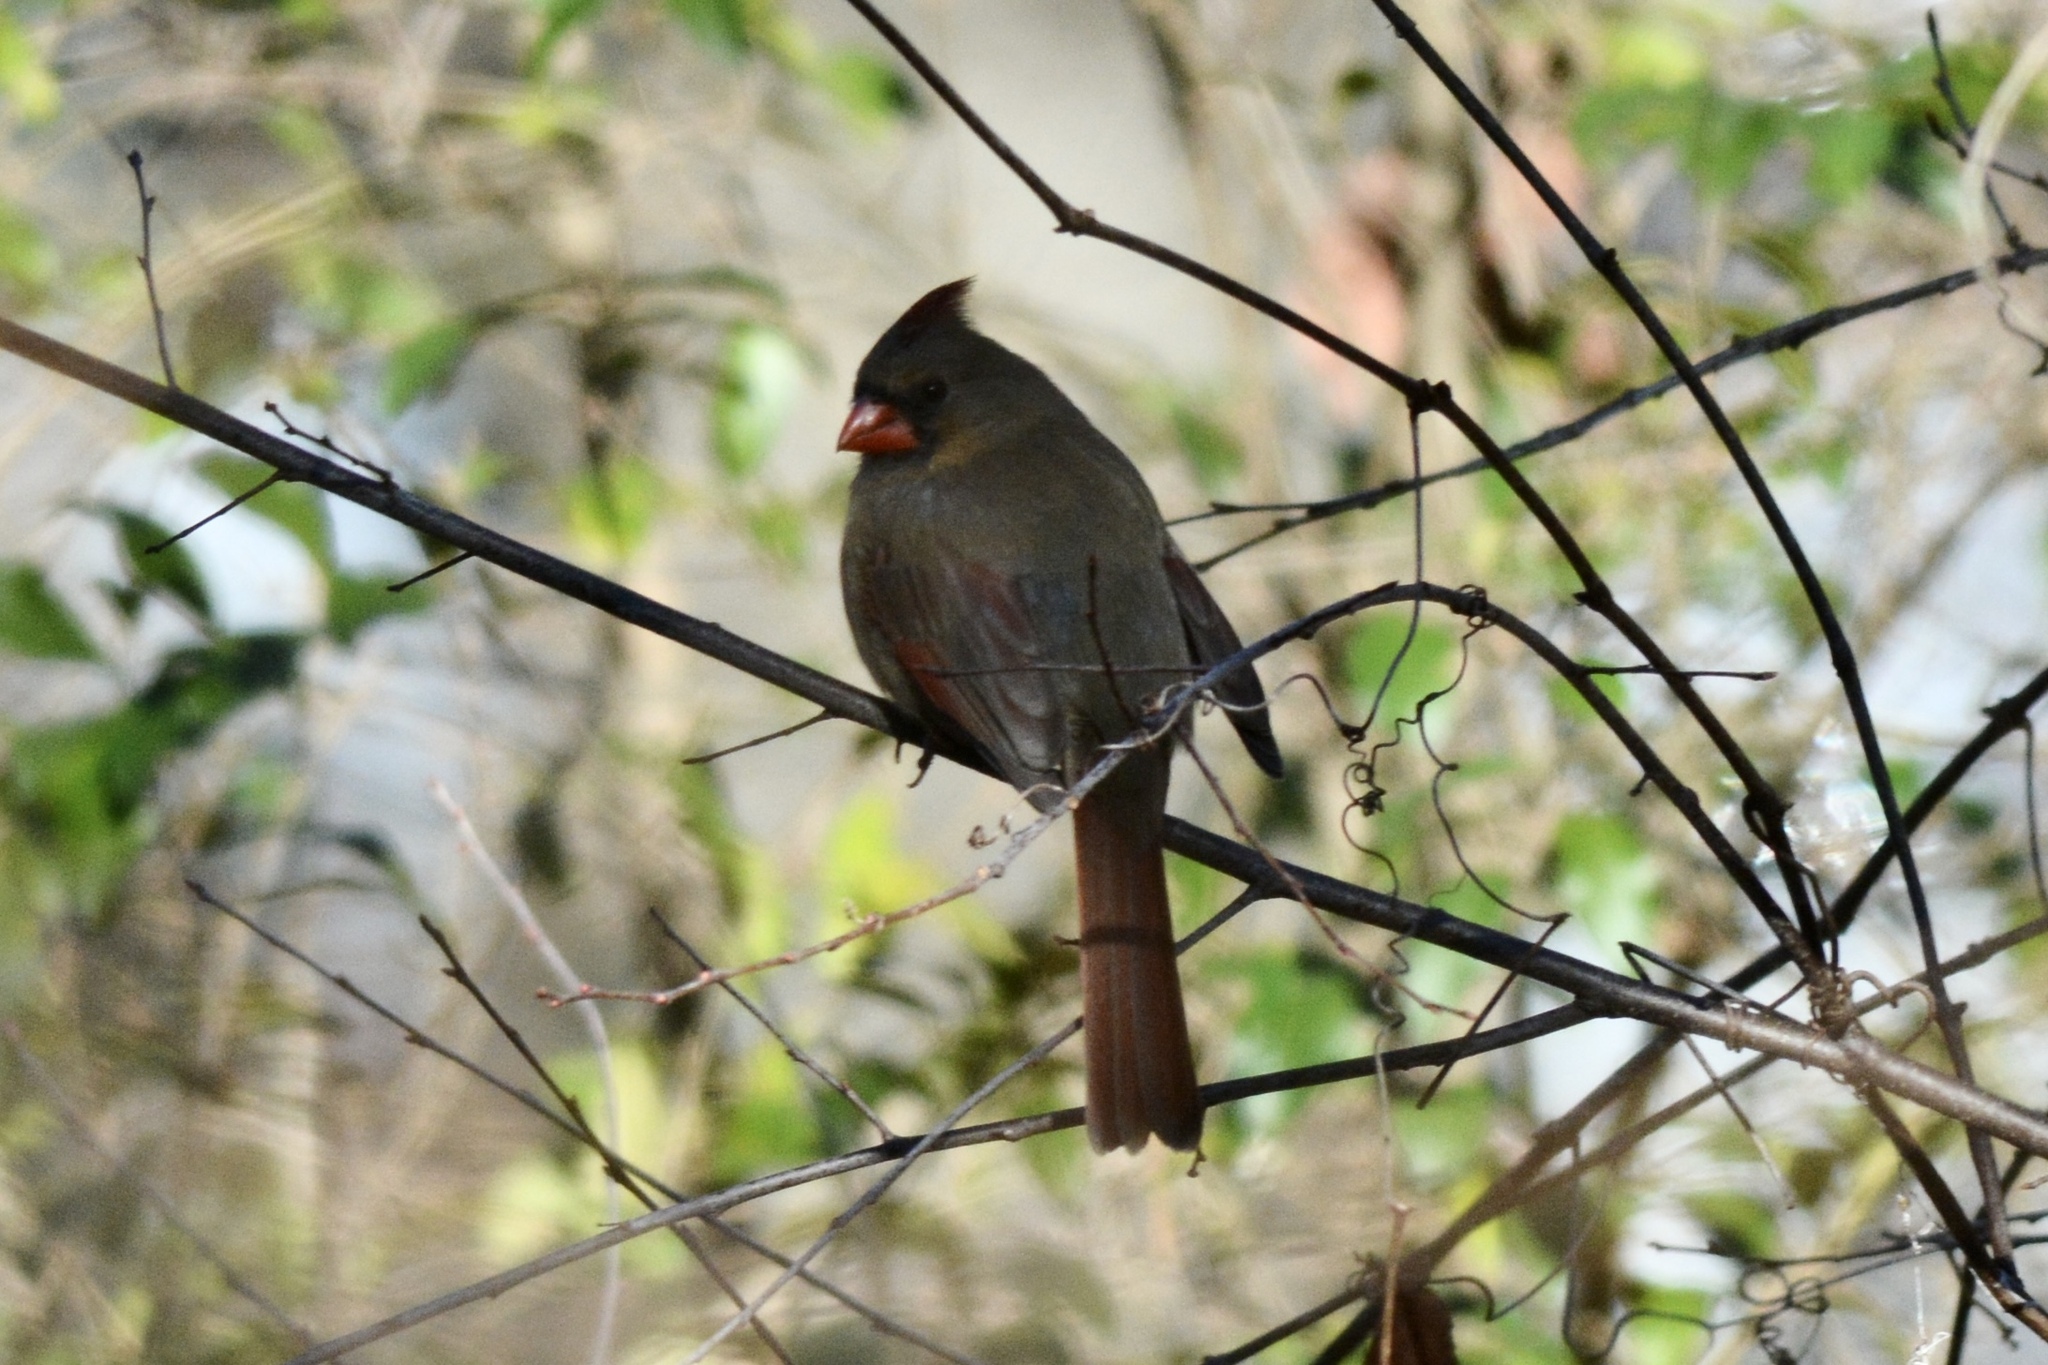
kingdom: Animalia
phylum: Chordata
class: Aves
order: Passeriformes
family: Cardinalidae
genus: Cardinalis
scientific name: Cardinalis cardinalis
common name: Northern cardinal
